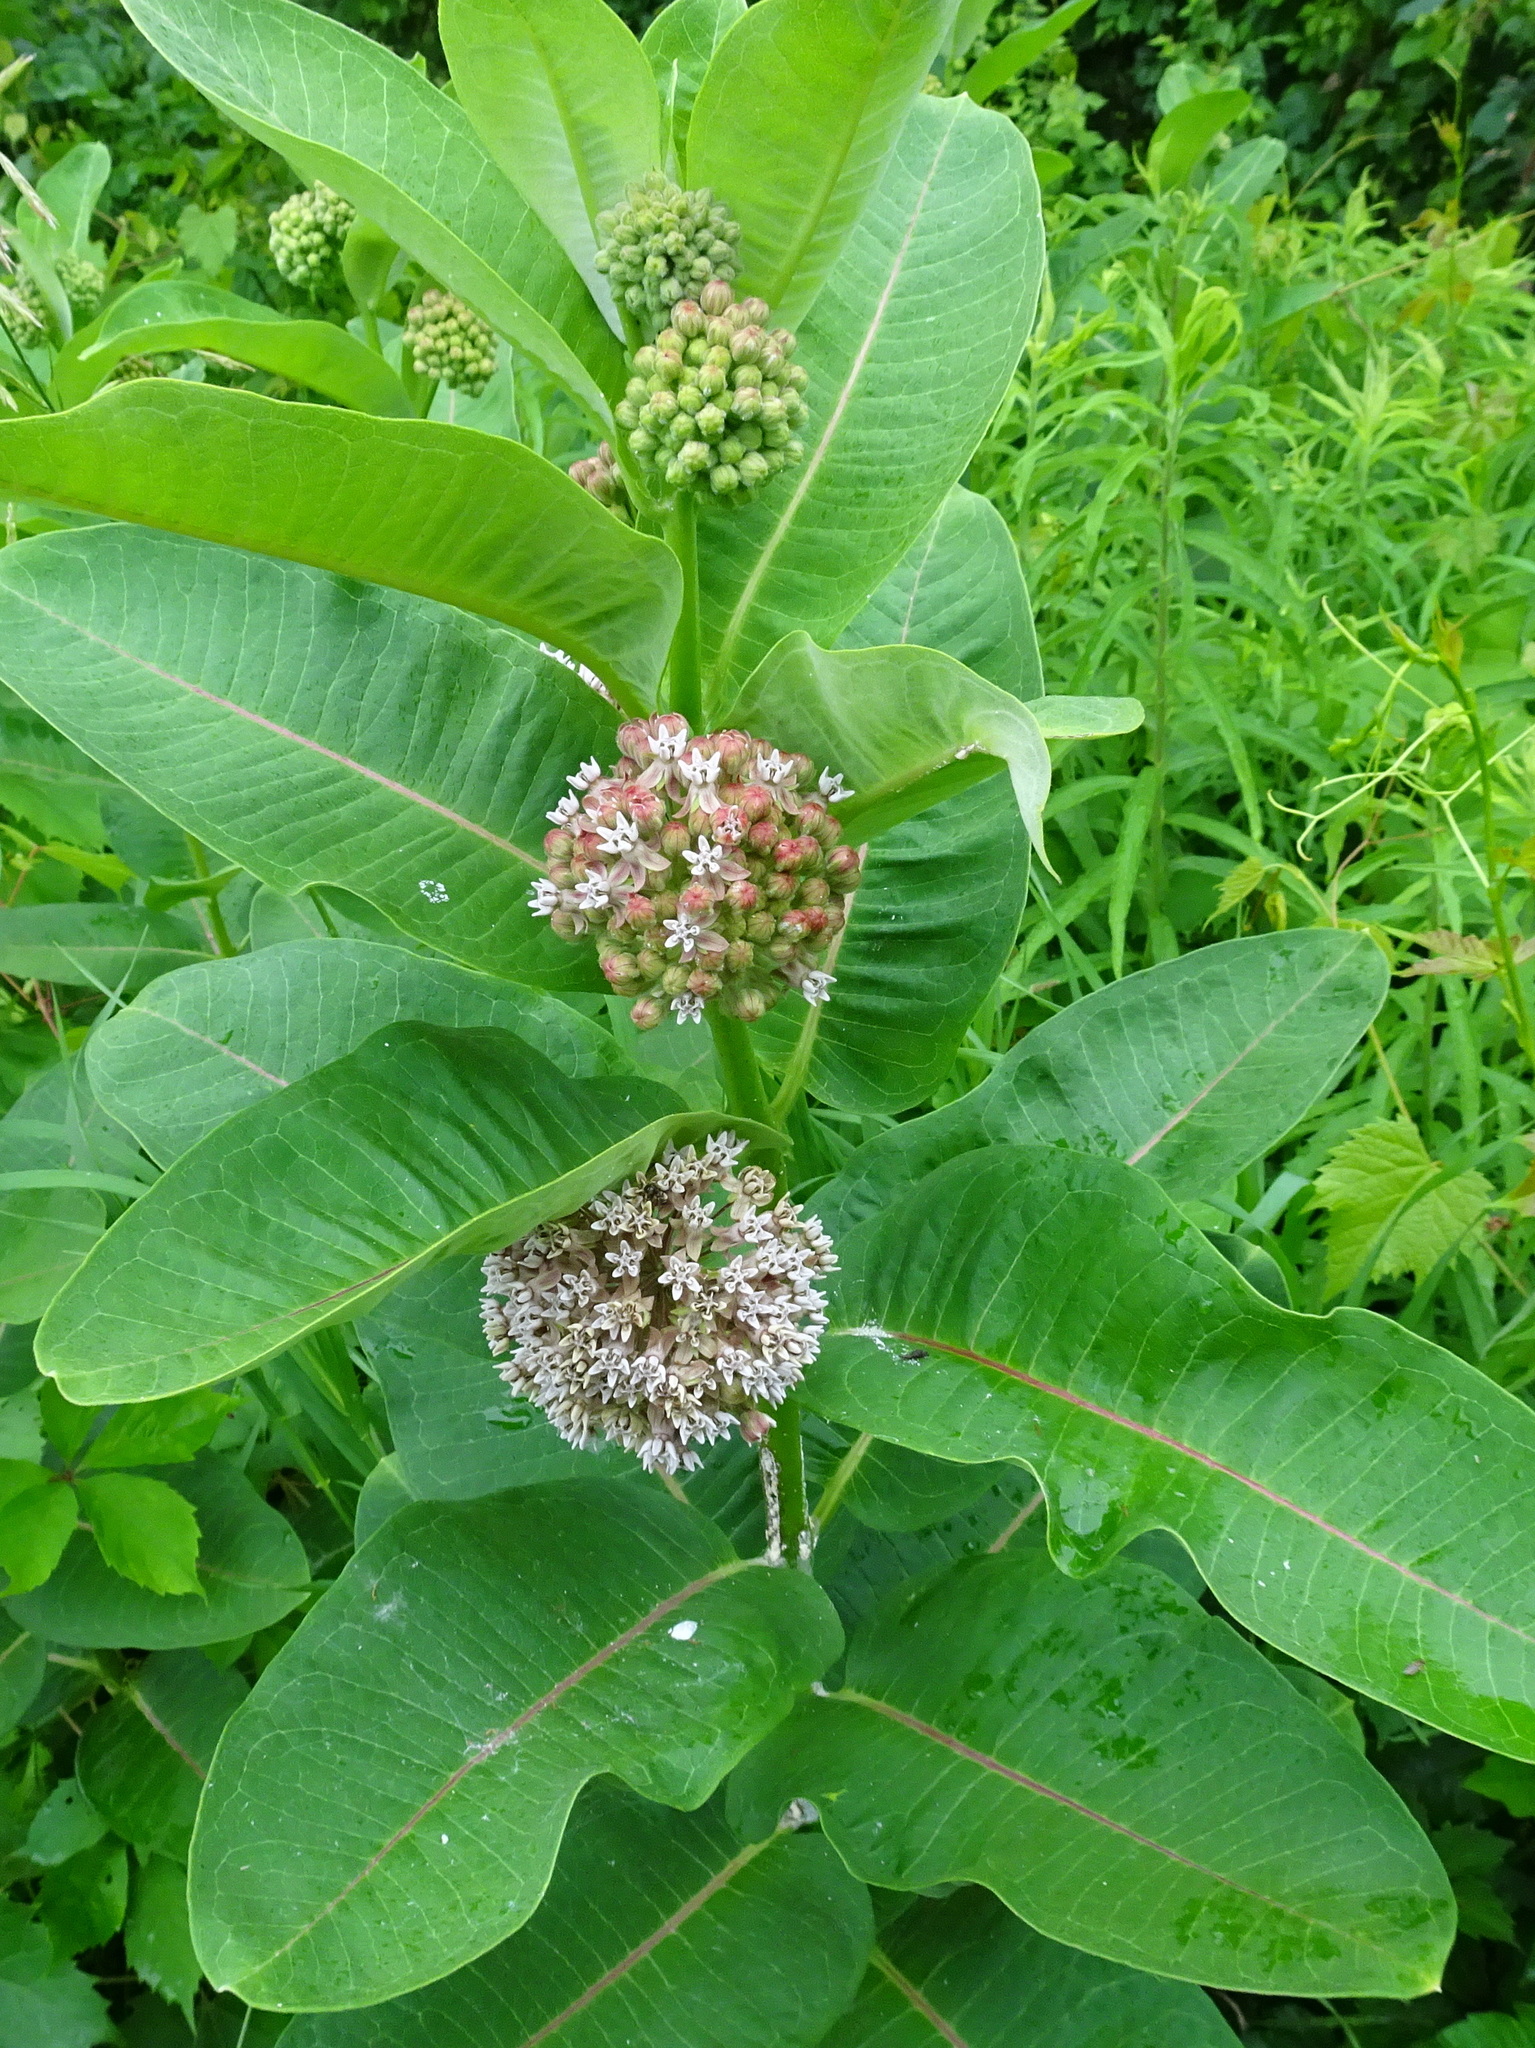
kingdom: Plantae
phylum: Tracheophyta
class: Magnoliopsida
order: Gentianales
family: Apocynaceae
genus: Asclepias
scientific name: Asclepias syriaca
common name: Common milkweed
